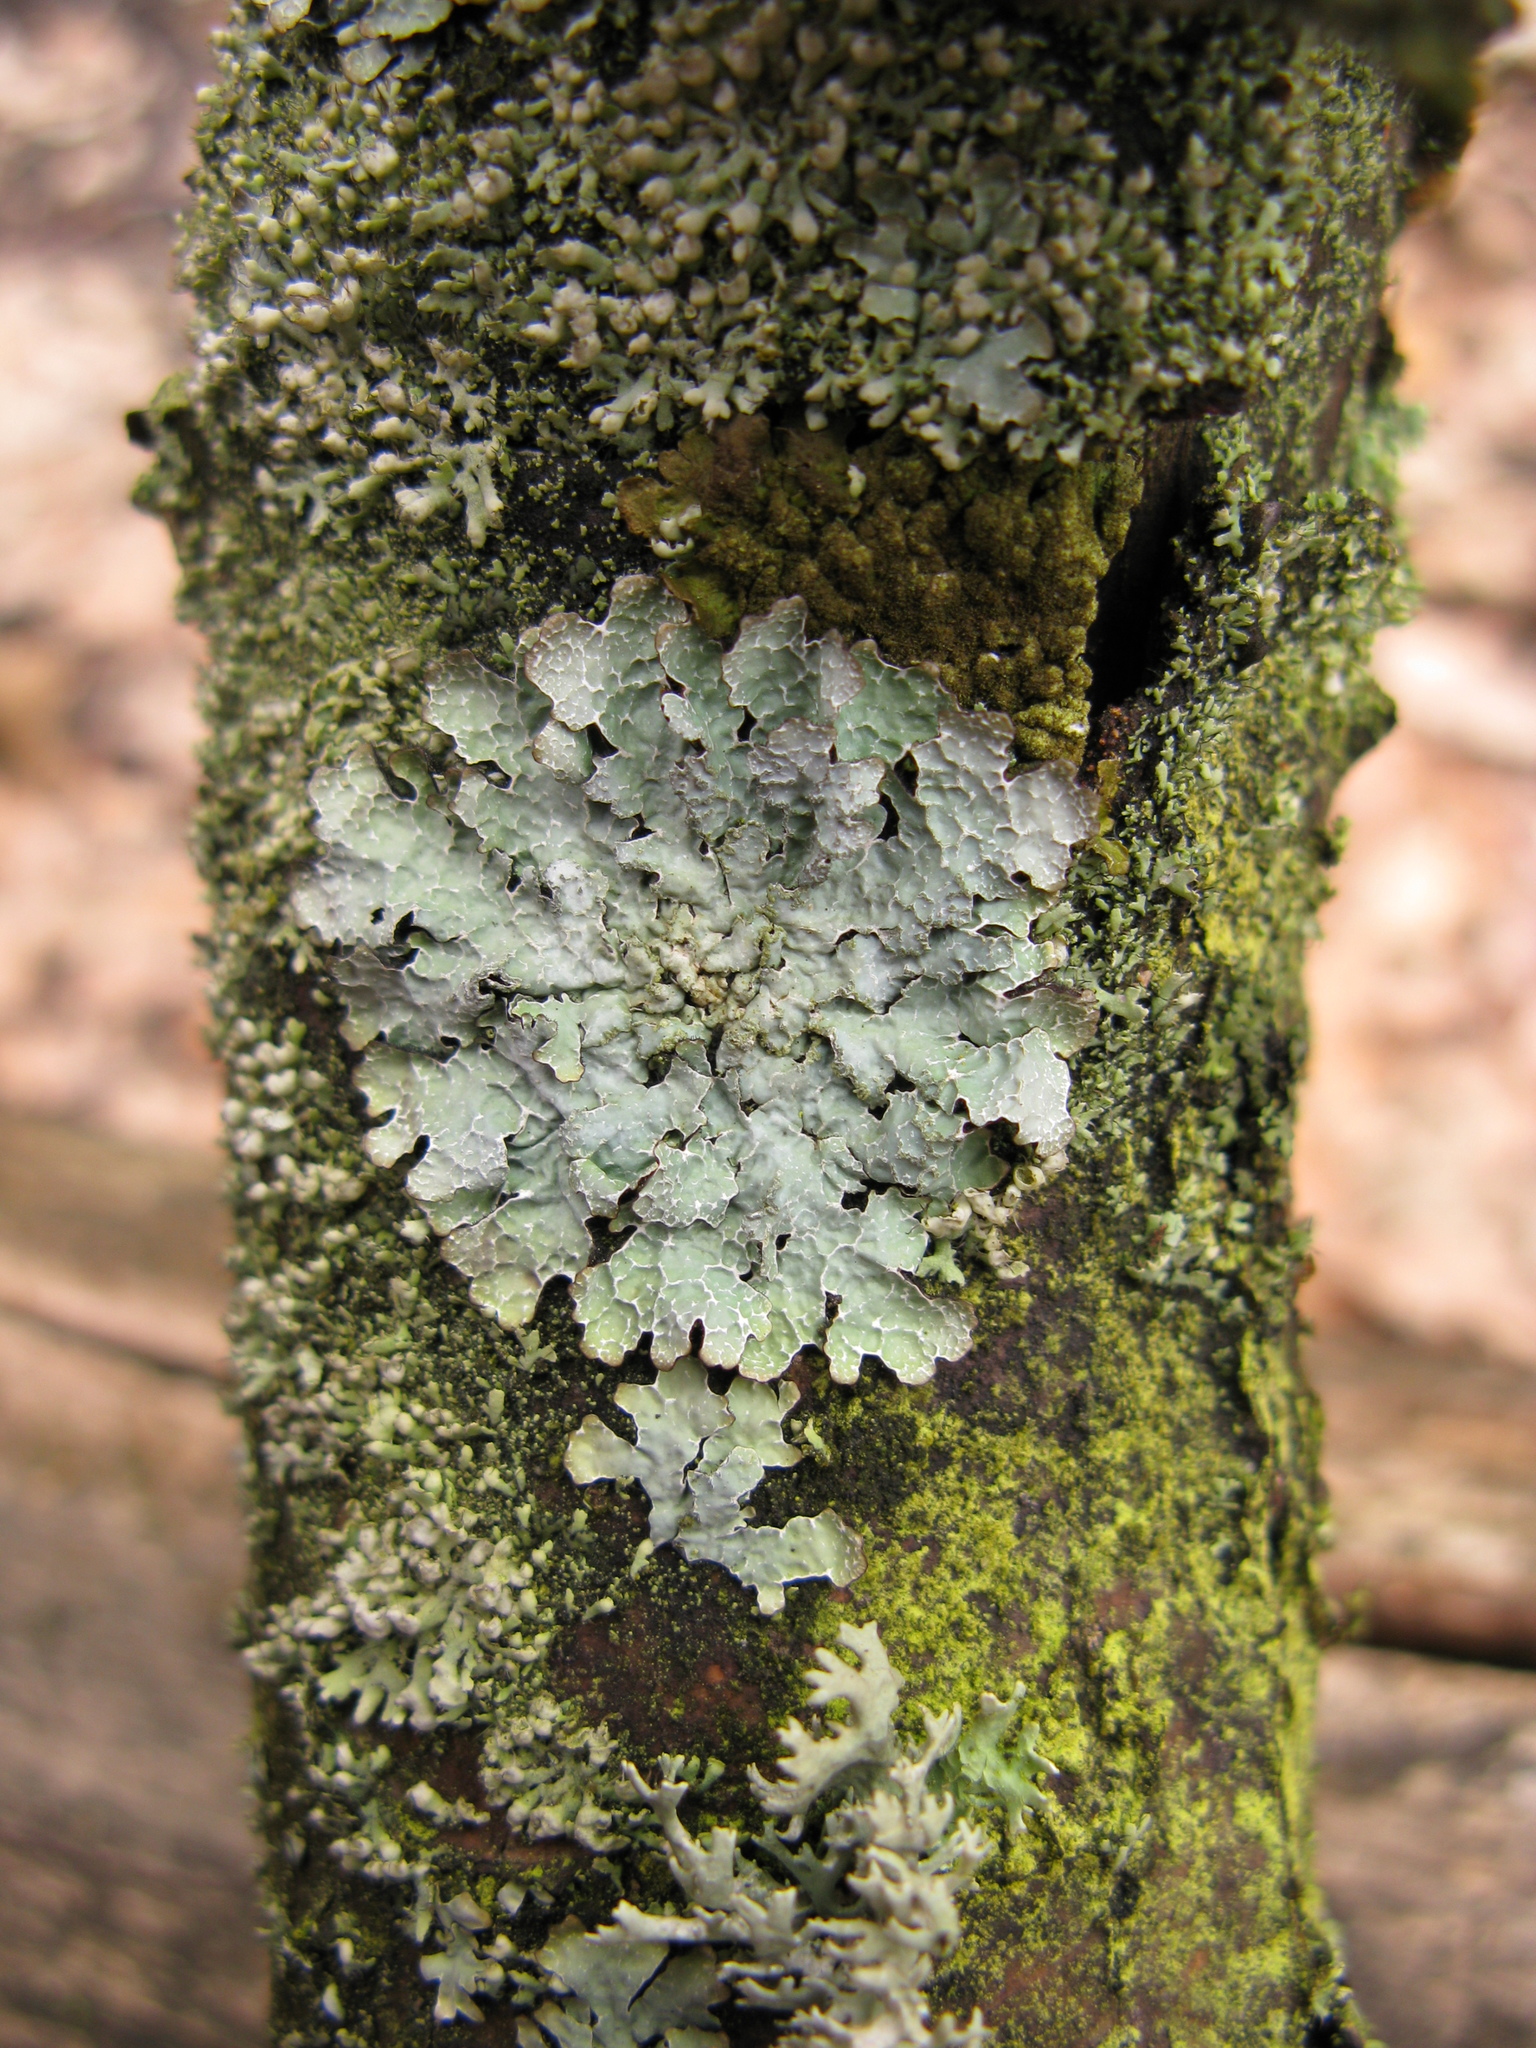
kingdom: Fungi
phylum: Ascomycota
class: Lecanoromycetes
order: Lecanorales
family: Parmeliaceae
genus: Parmelia
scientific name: Parmelia sulcata
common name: Netted shield lichen
